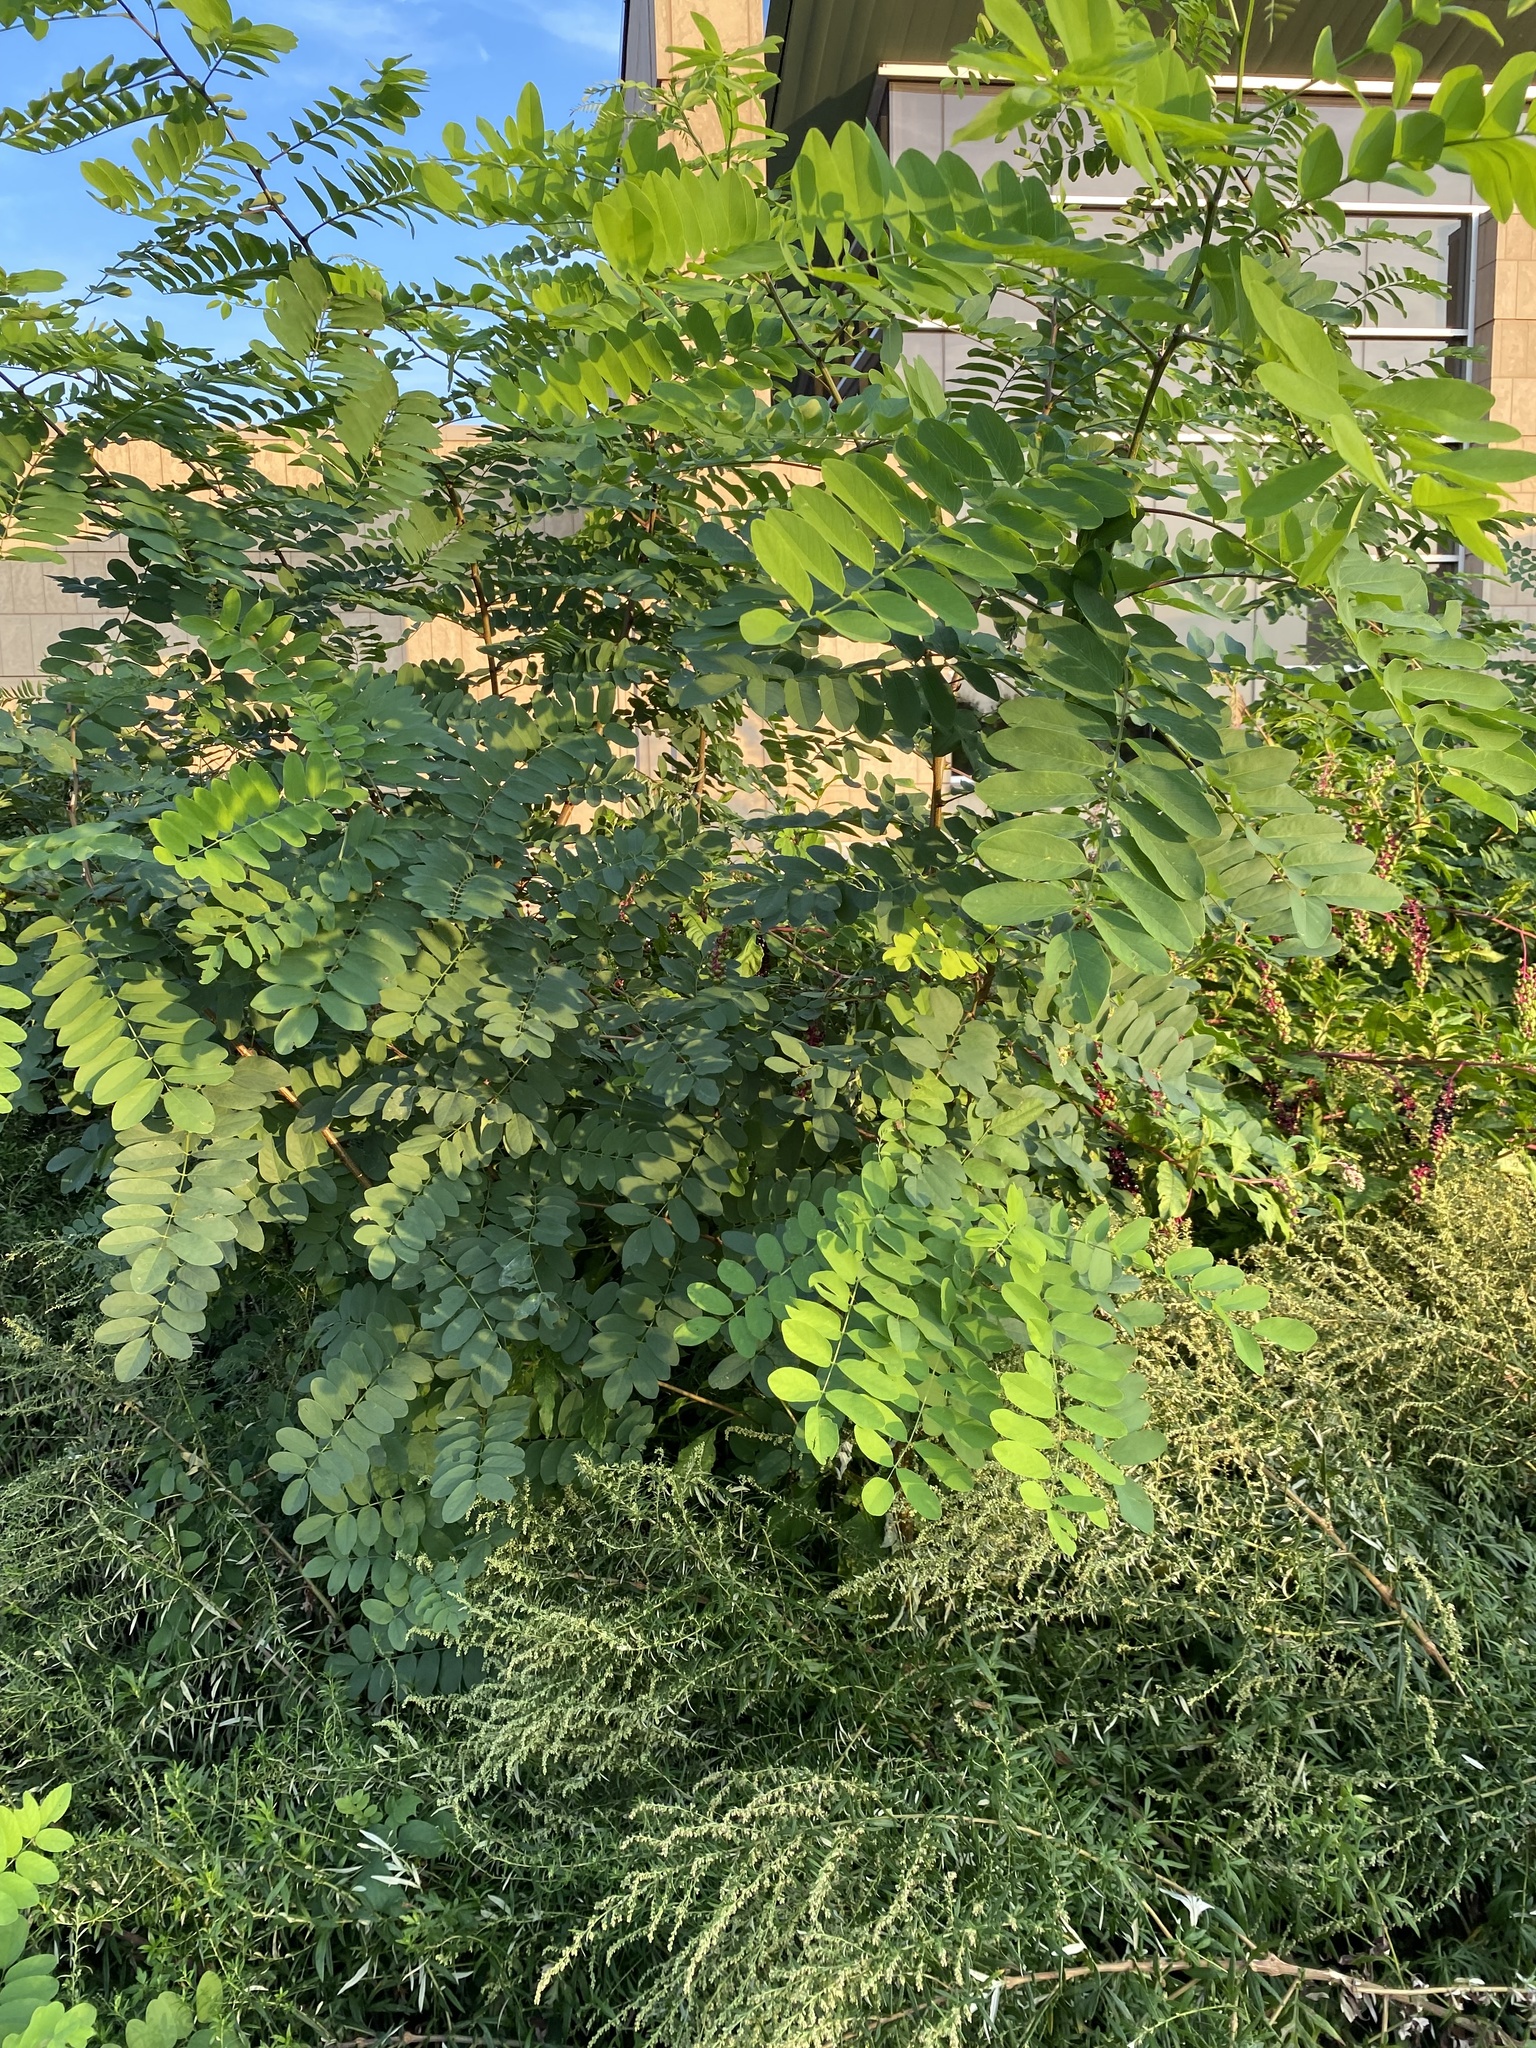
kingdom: Plantae
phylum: Tracheophyta
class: Magnoliopsida
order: Fabales
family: Fabaceae
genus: Robinia
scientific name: Robinia pseudoacacia
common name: Black locust
